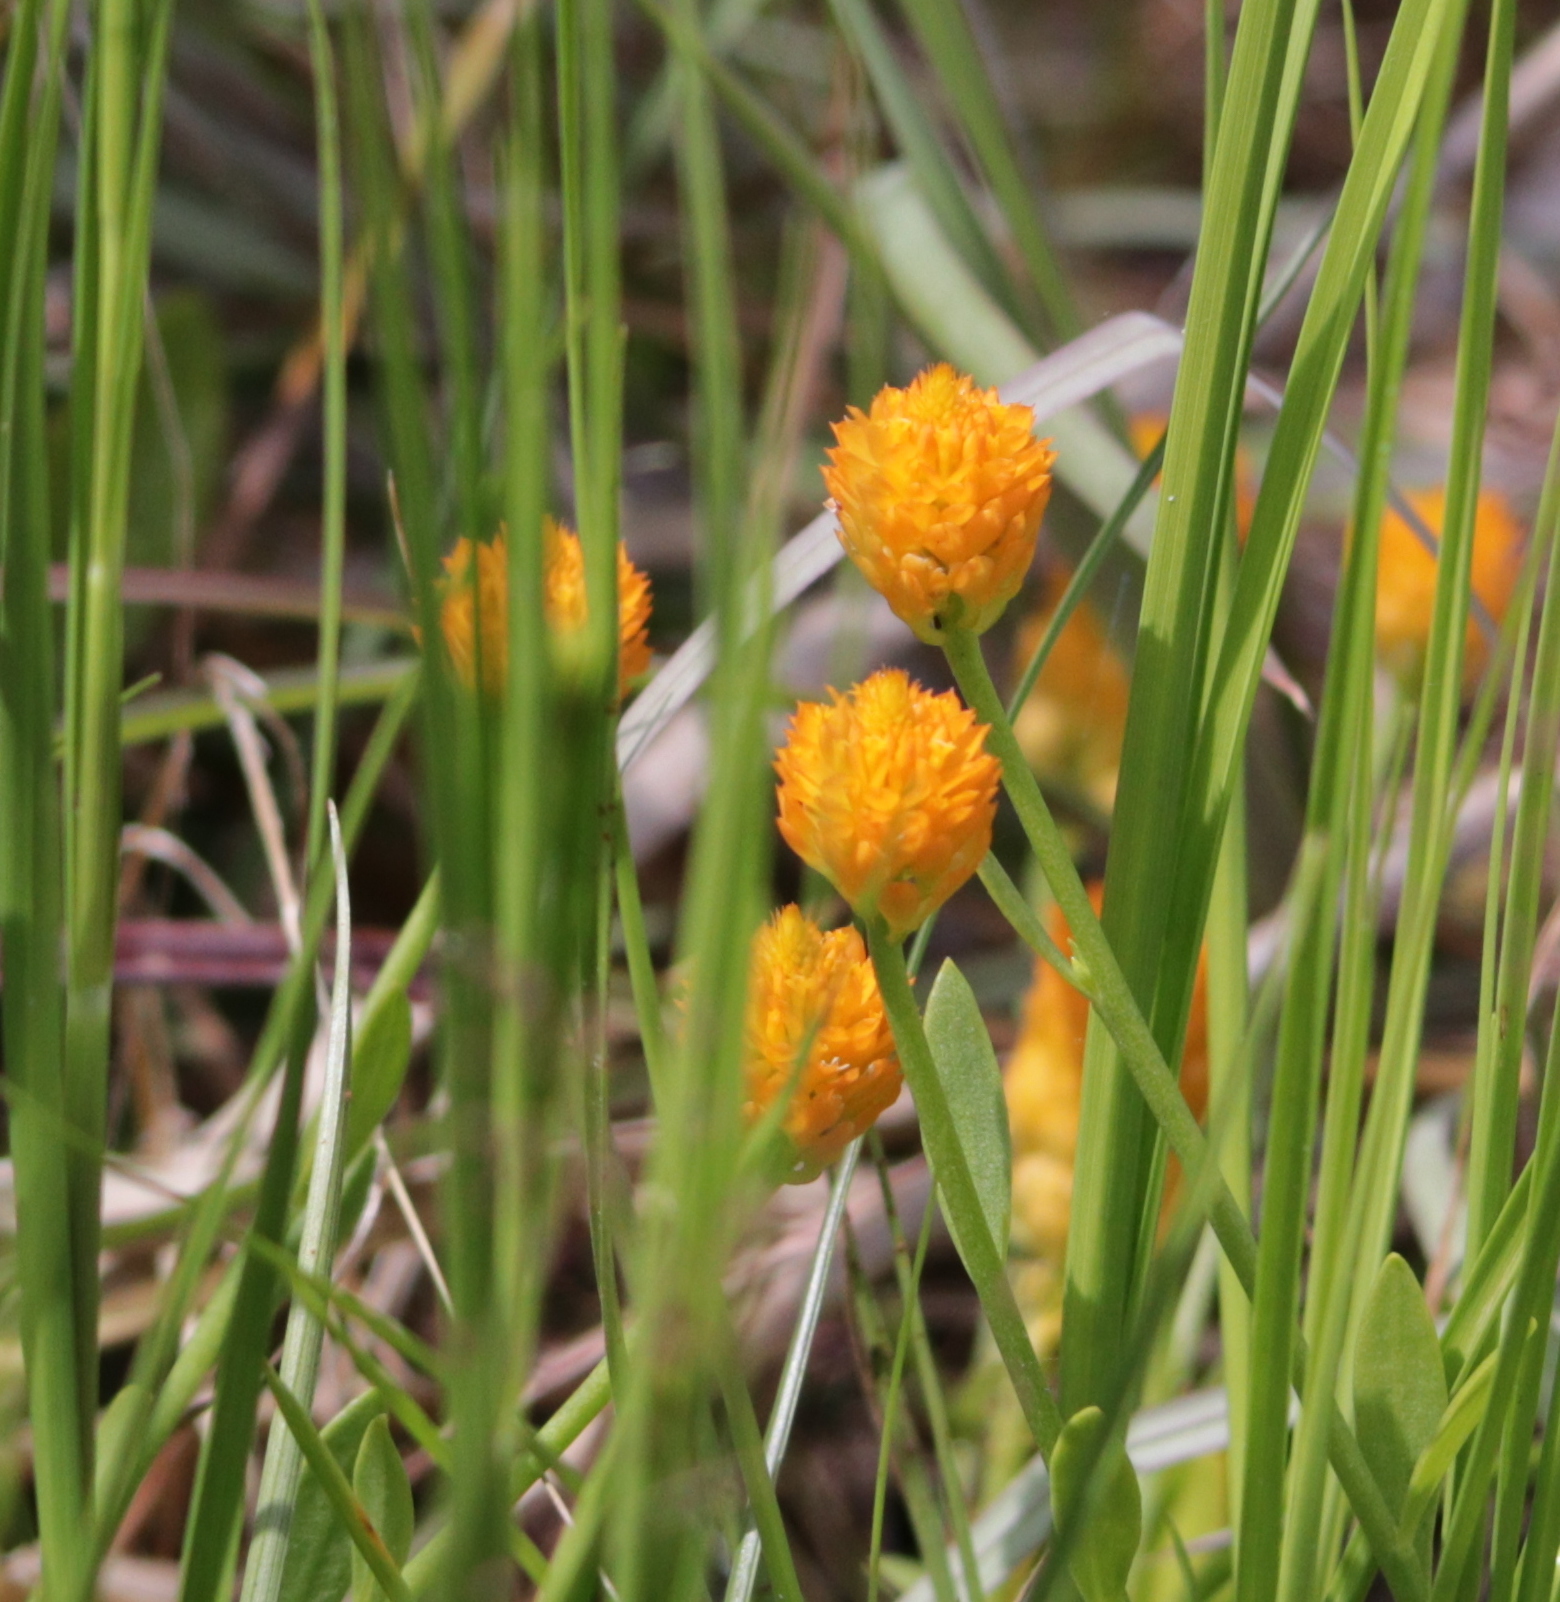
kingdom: Plantae
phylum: Tracheophyta
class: Magnoliopsida
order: Fabales
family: Polygalaceae
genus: Polygala
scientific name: Polygala lutea
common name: Orange milkwort
